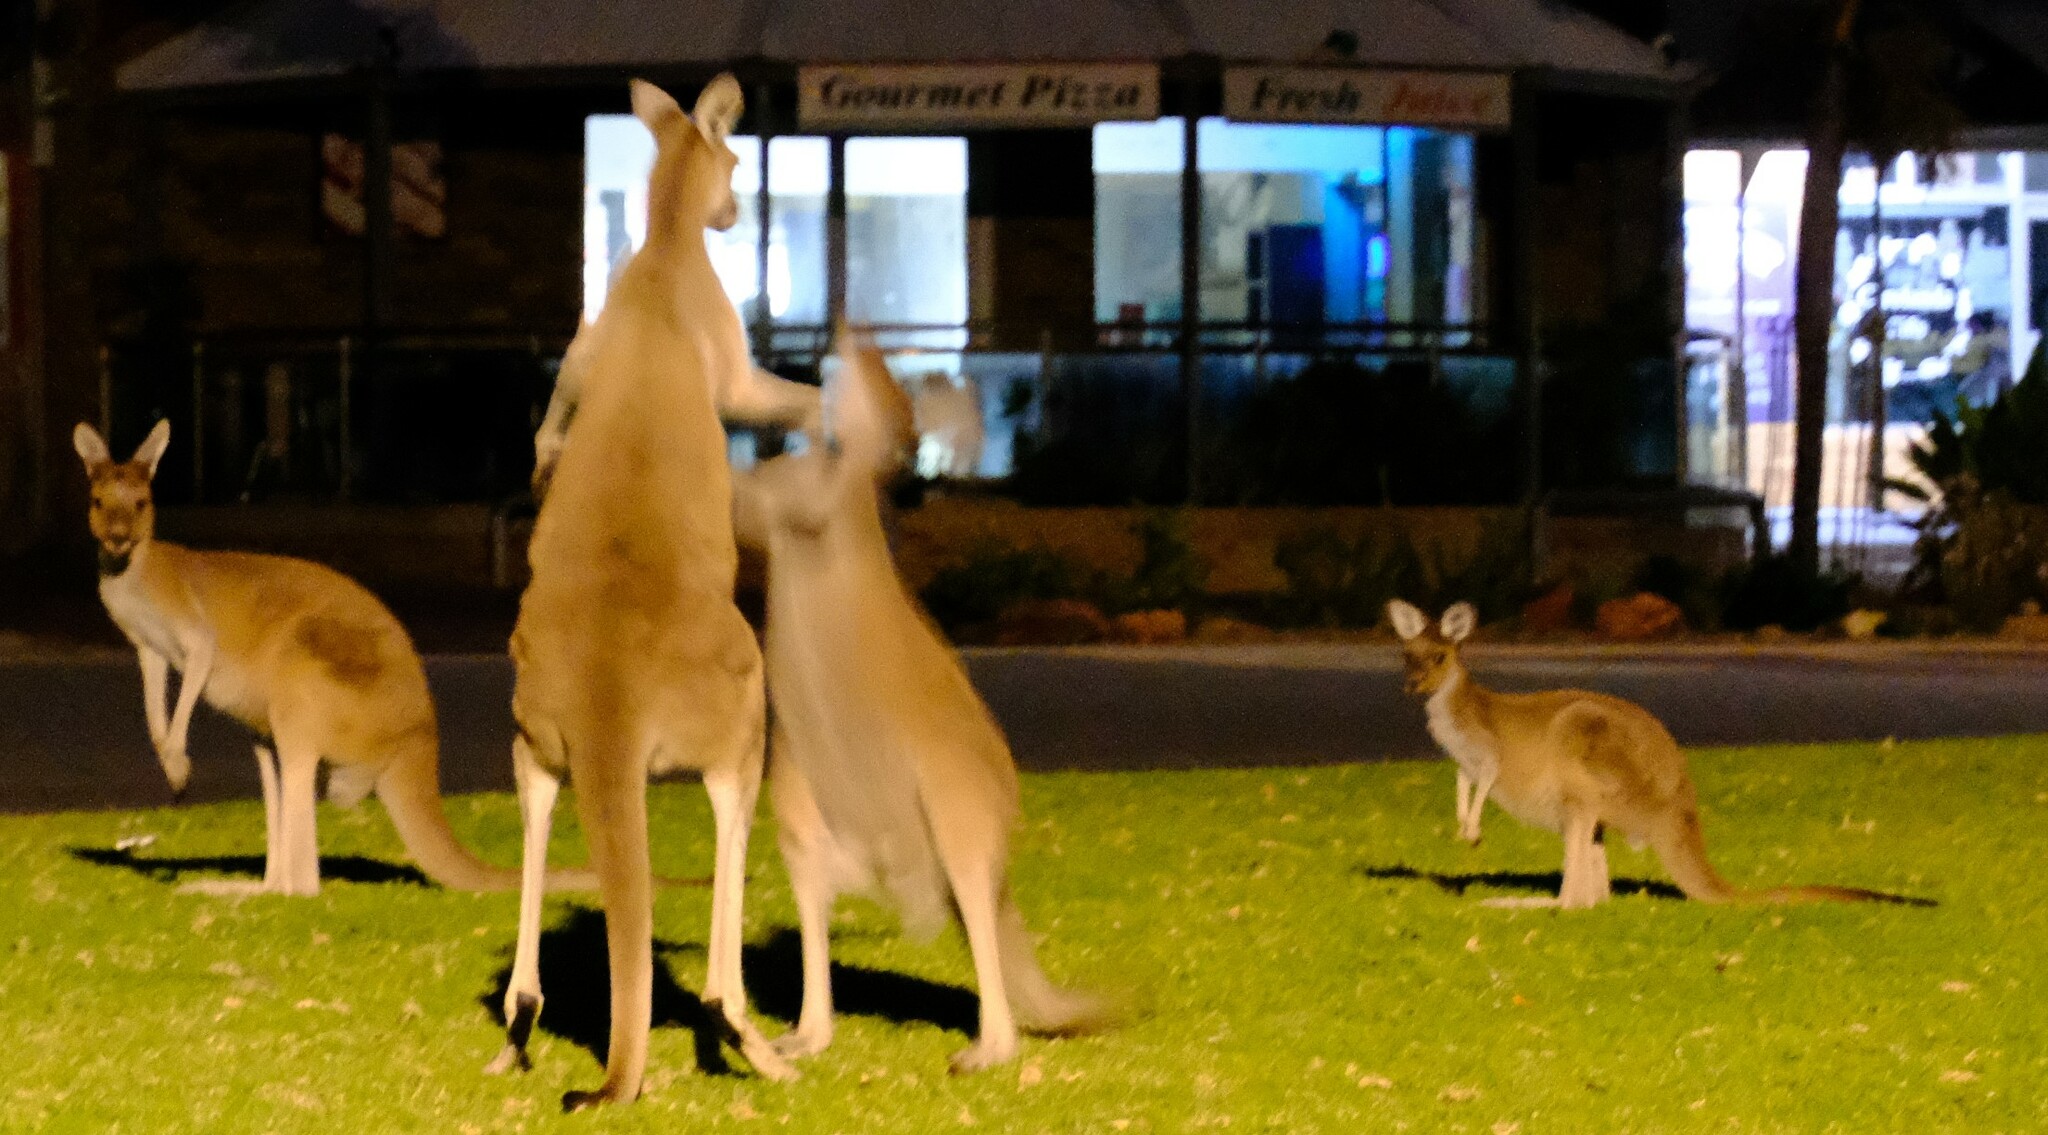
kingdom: Animalia
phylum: Chordata
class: Mammalia
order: Diprotodontia
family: Macropodidae
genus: Macropus
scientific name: Macropus fuliginosus
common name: Western grey kangaroo
